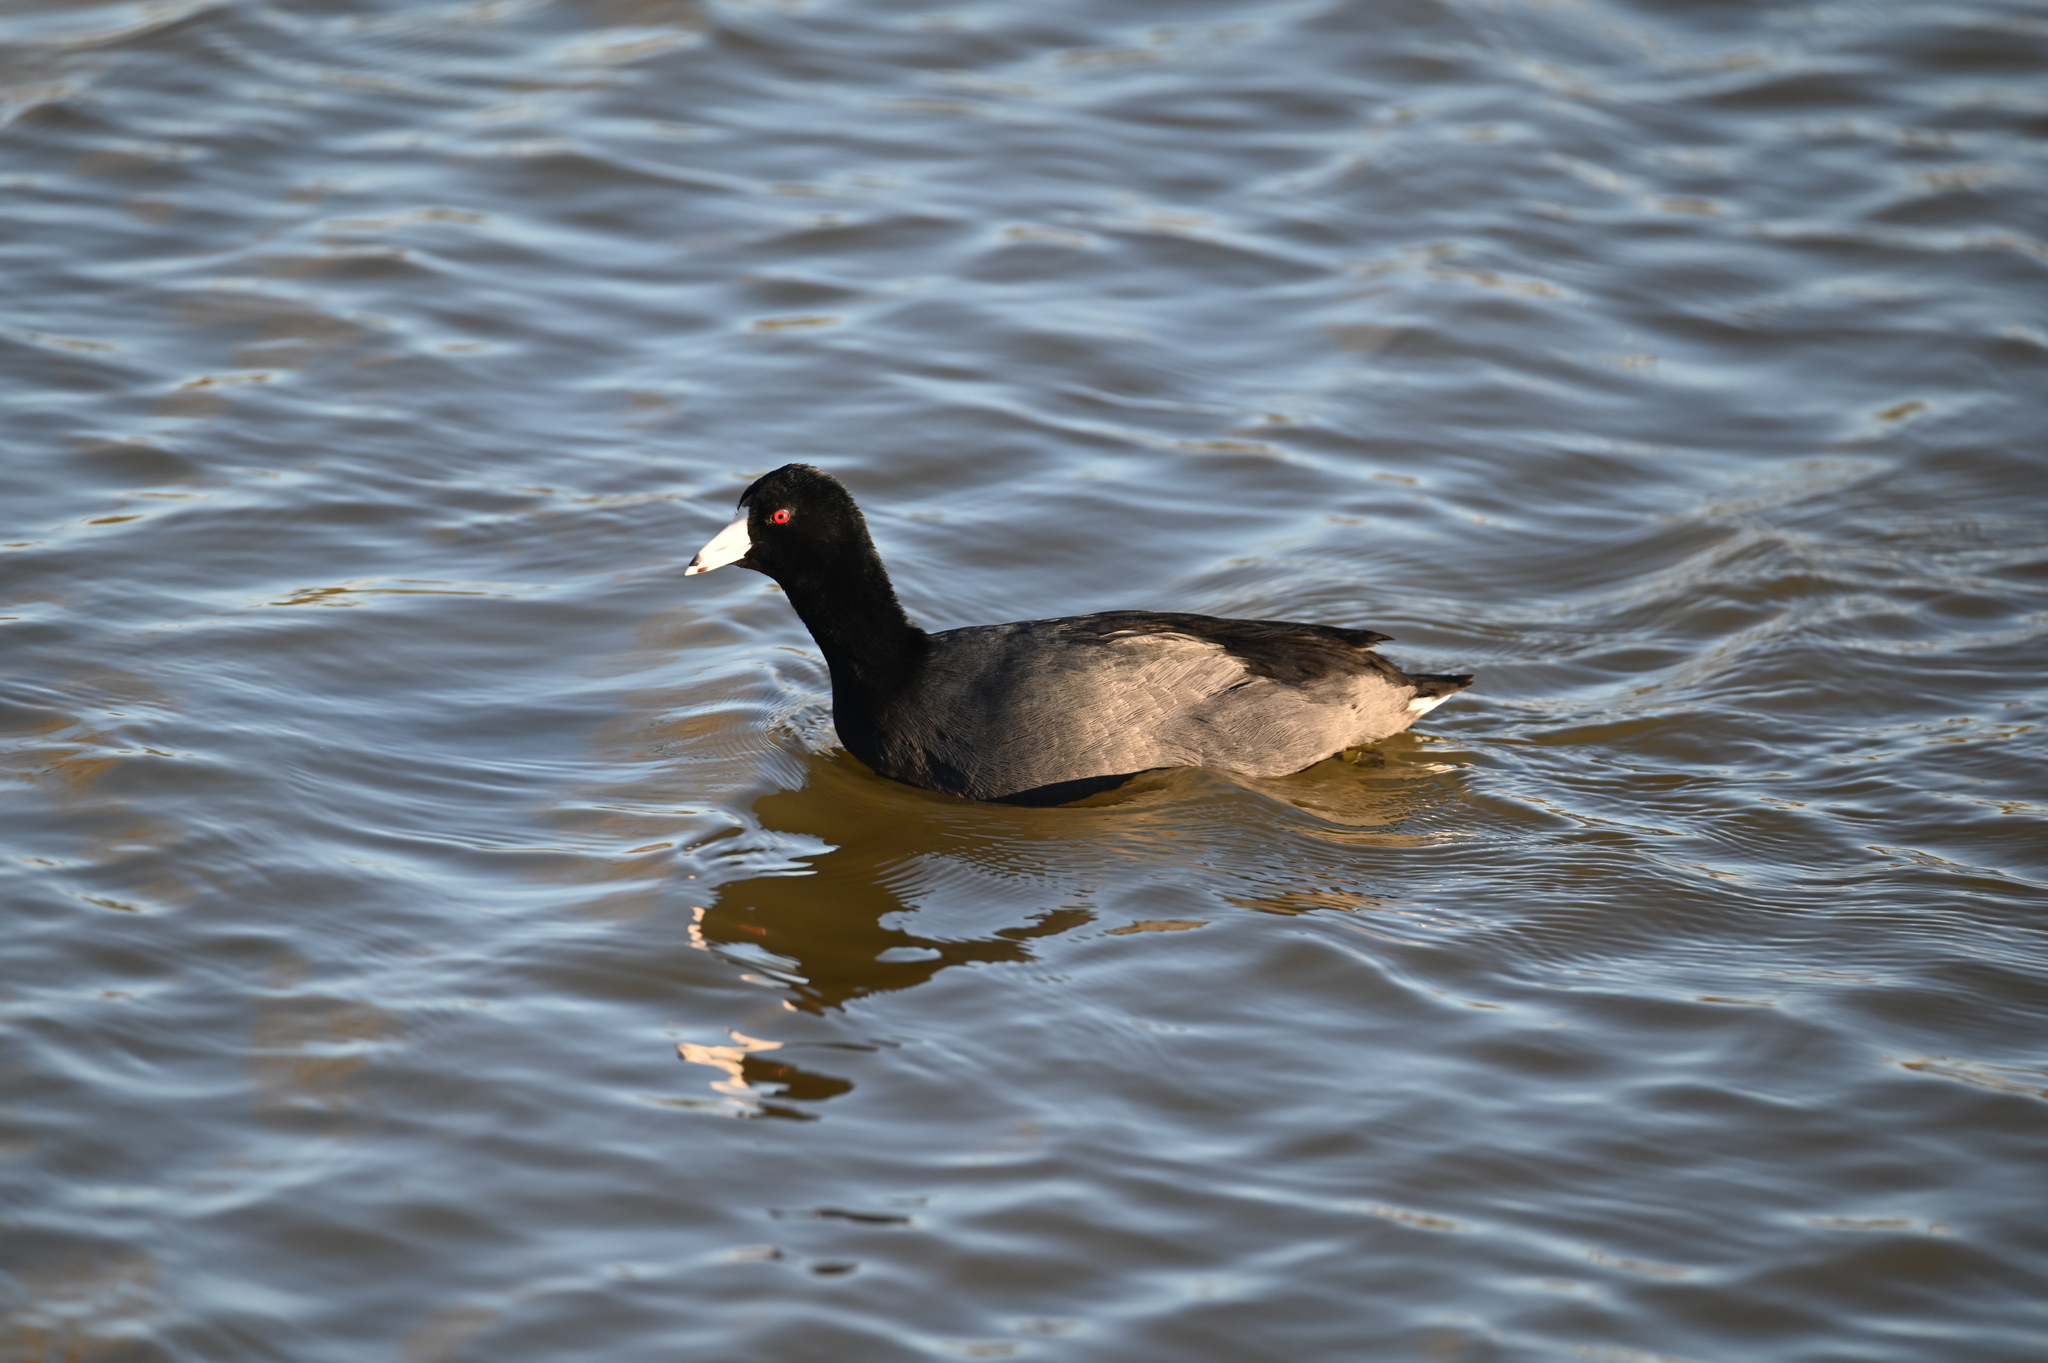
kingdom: Animalia
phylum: Chordata
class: Aves
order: Gruiformes
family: Rallidae
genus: Fulica
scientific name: Fulica americana
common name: American coot
